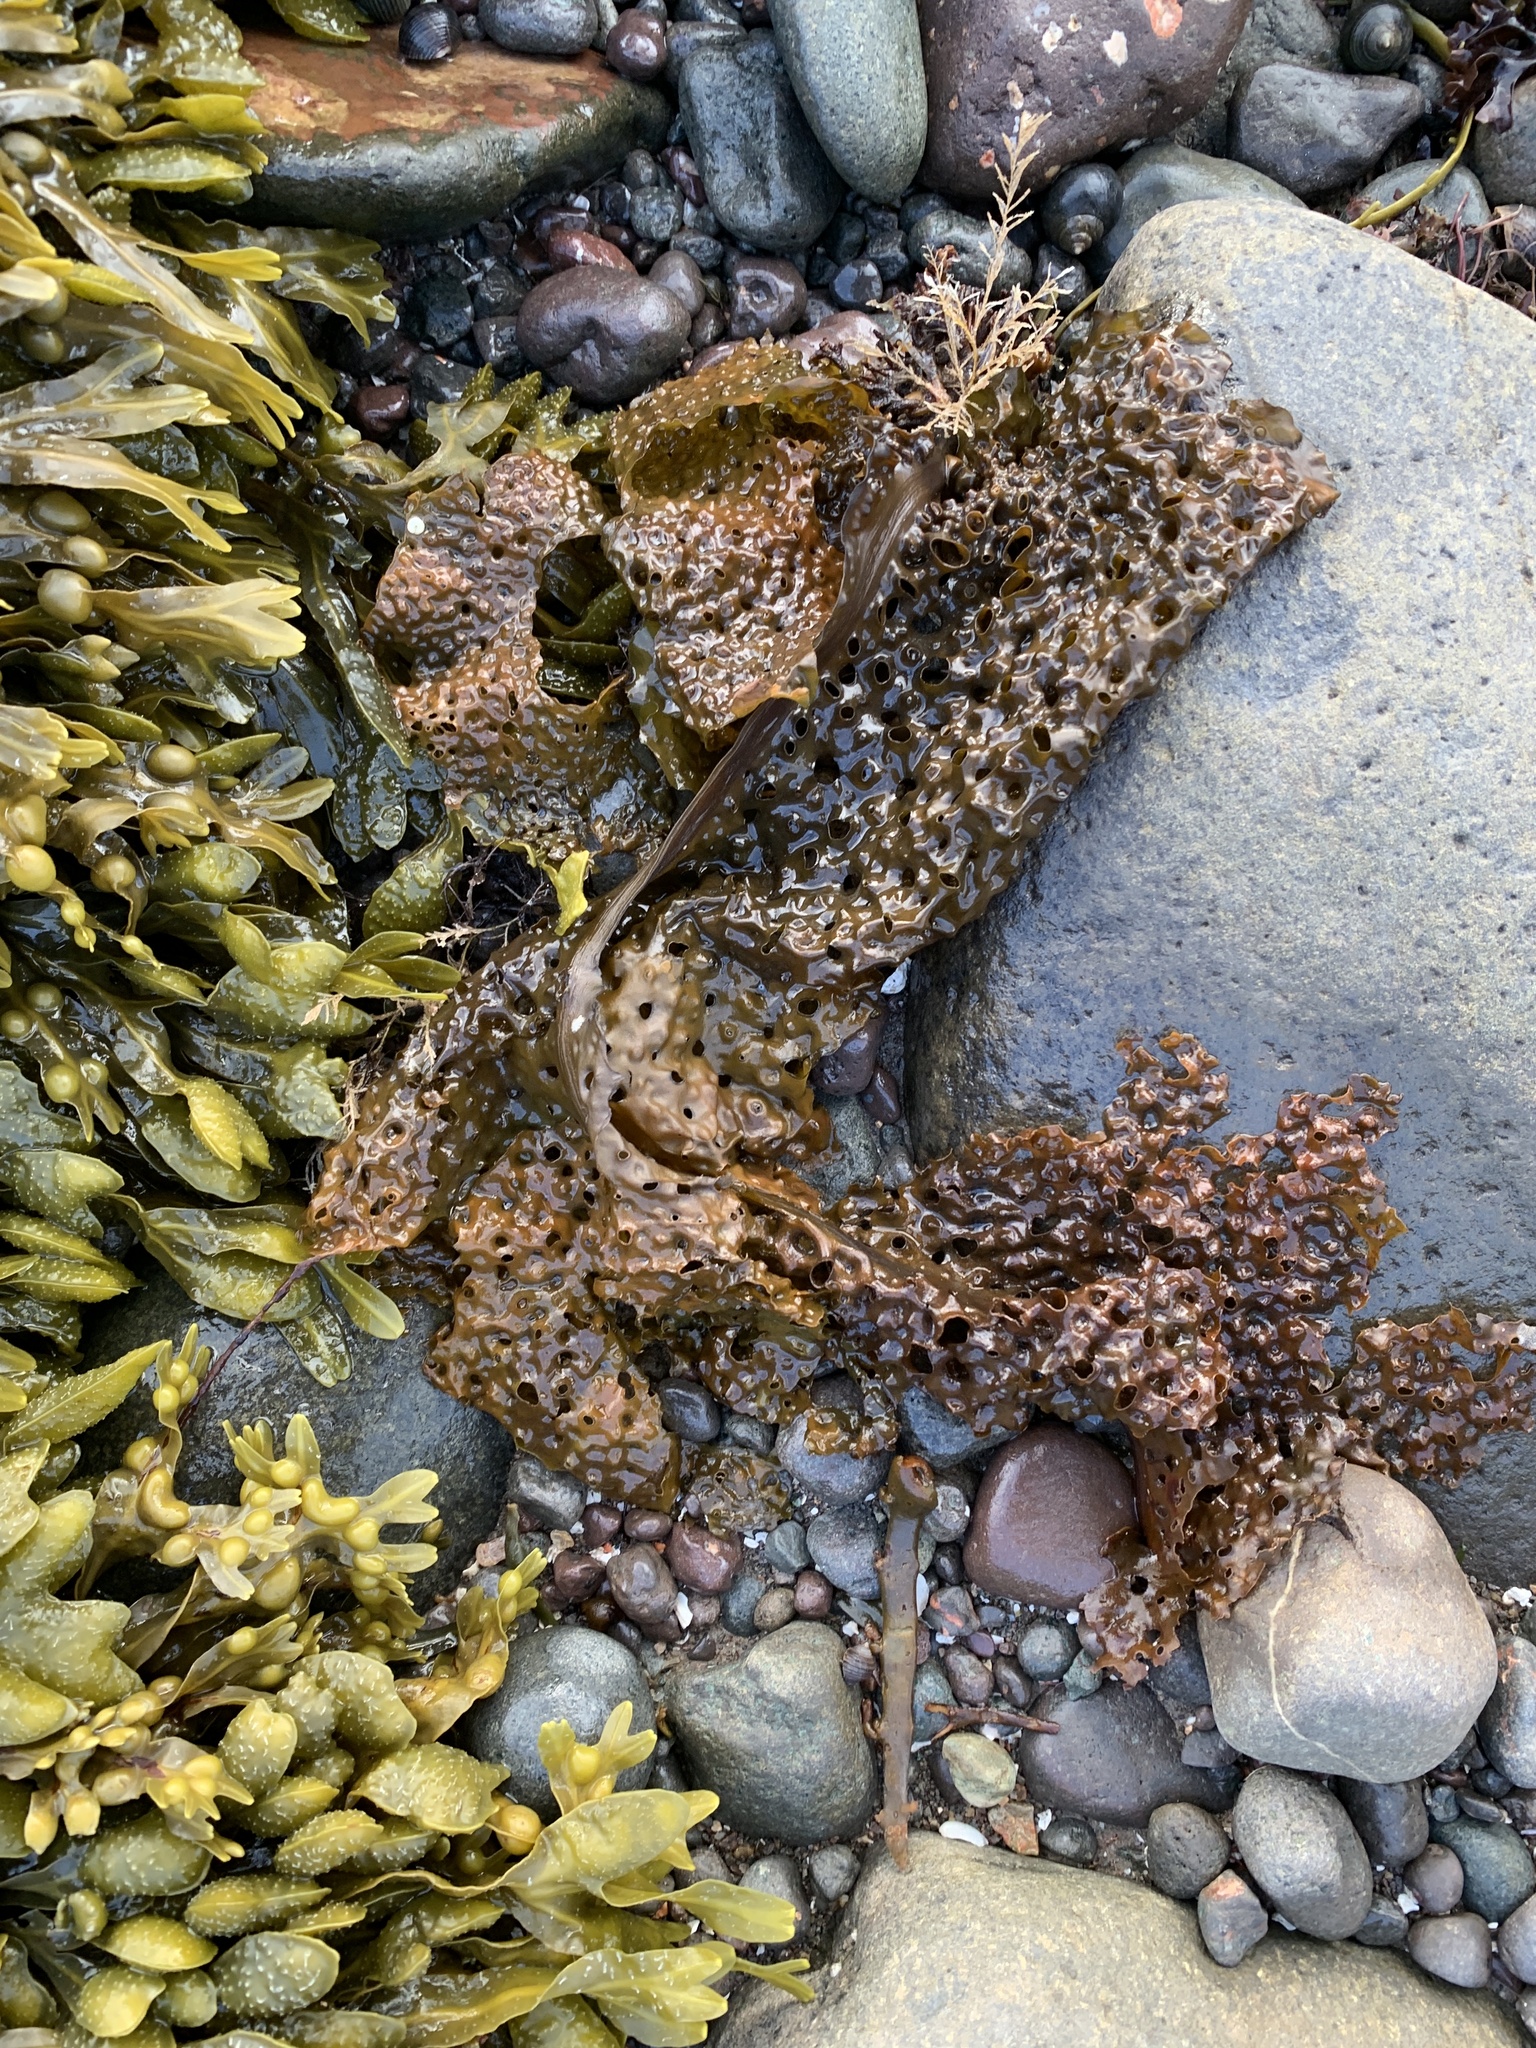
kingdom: Chromista
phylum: Ochrophyta
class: Phaeophyceae
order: Laminariales
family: Costariaceae
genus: Agarum
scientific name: Agarum clathratum
